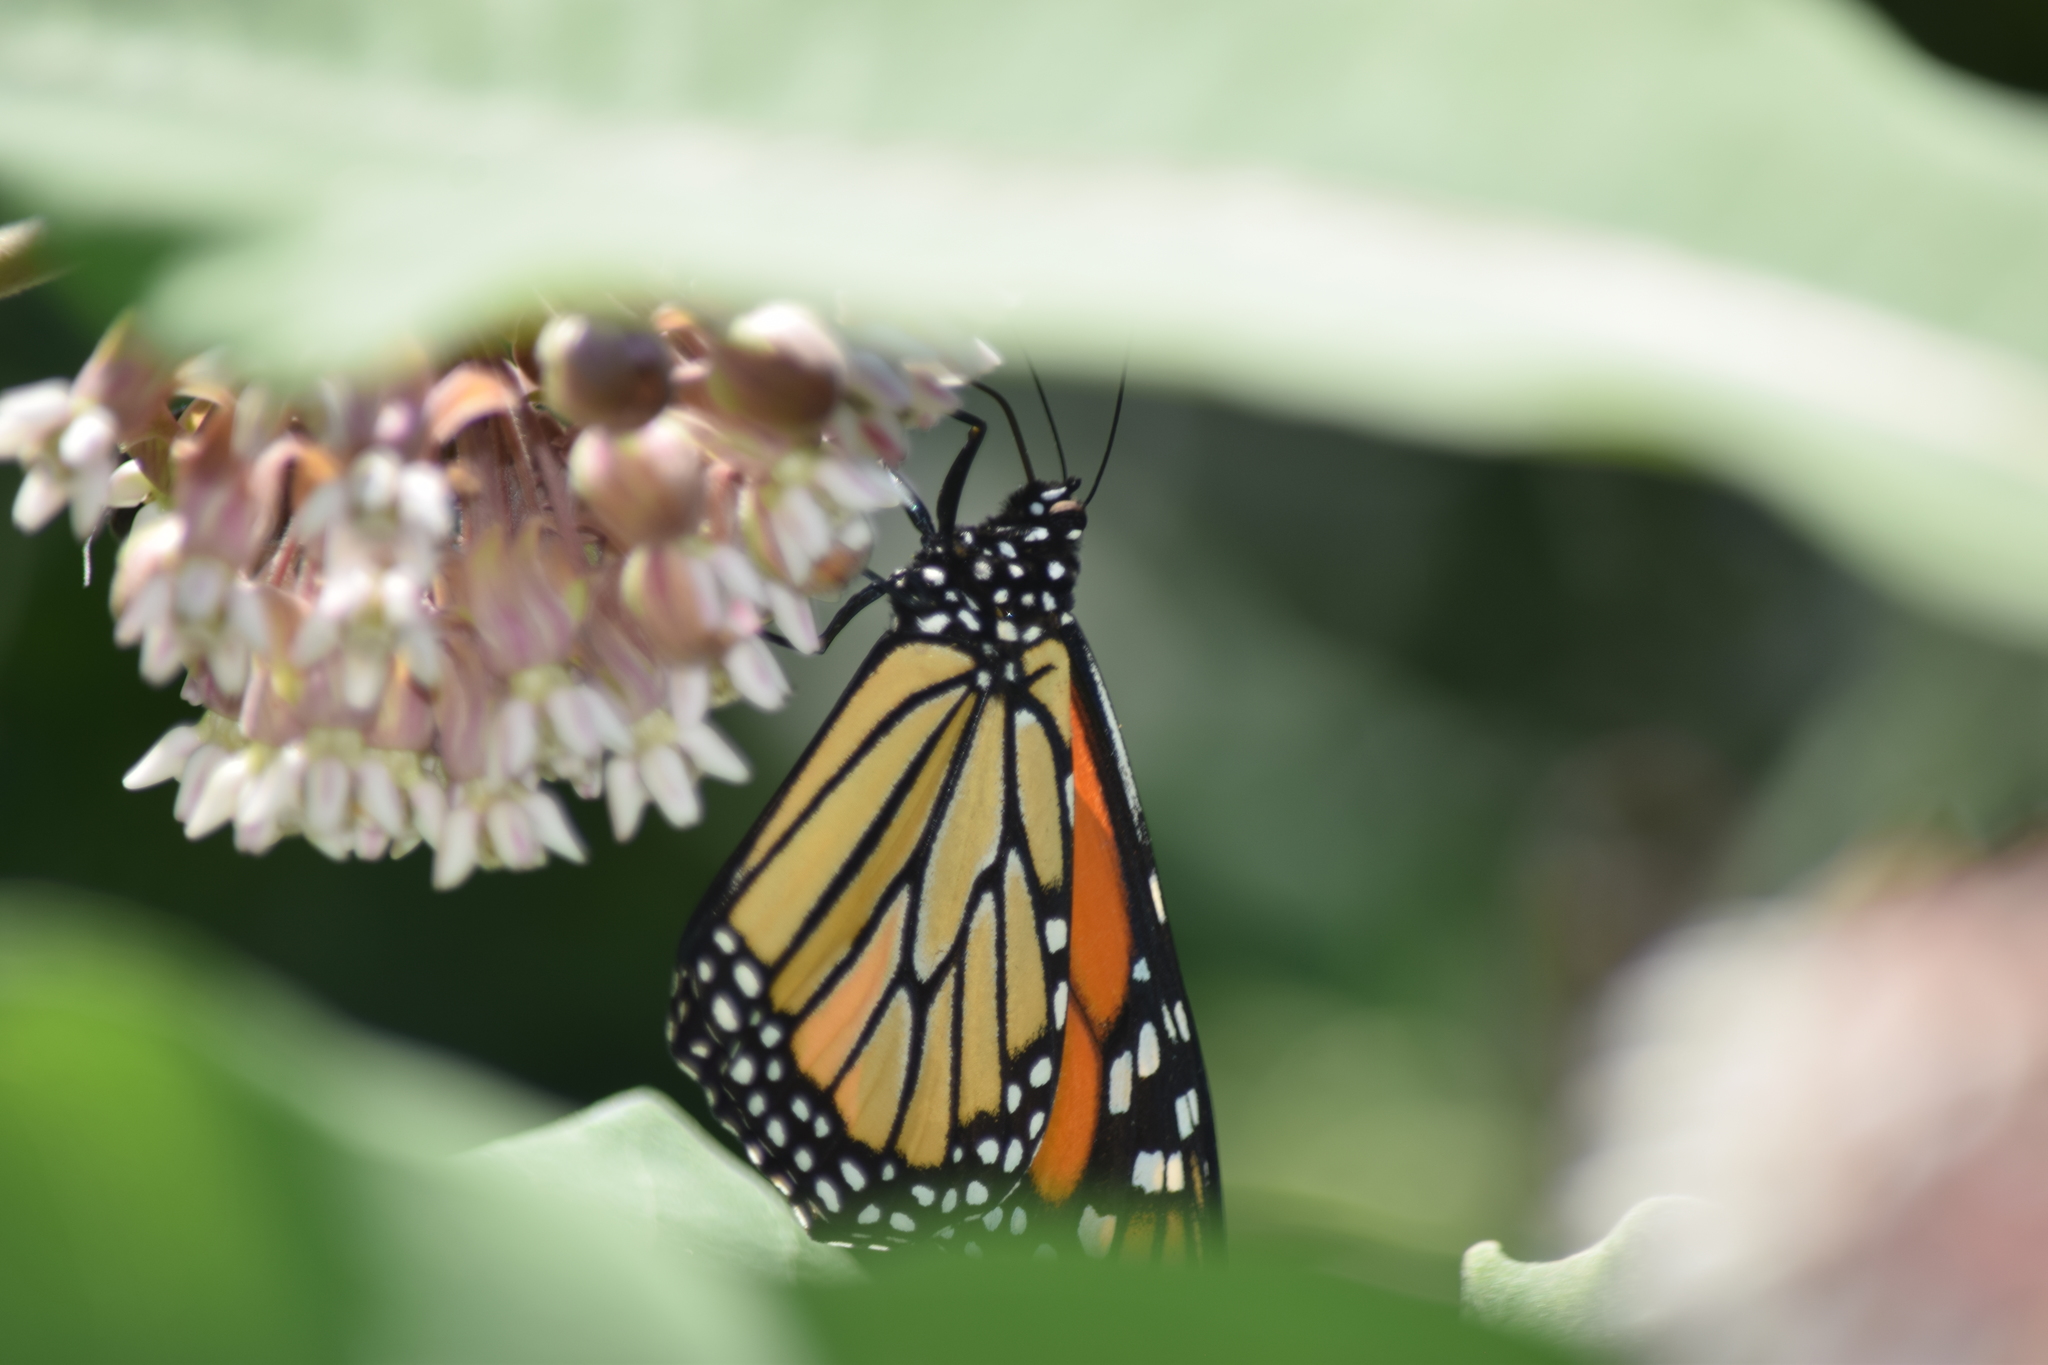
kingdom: Animalia
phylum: Arthropoda
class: Insecta
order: Lepidoptera
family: Nymphalidae
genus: Danaus
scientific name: Danaus plexippus
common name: Monarch
